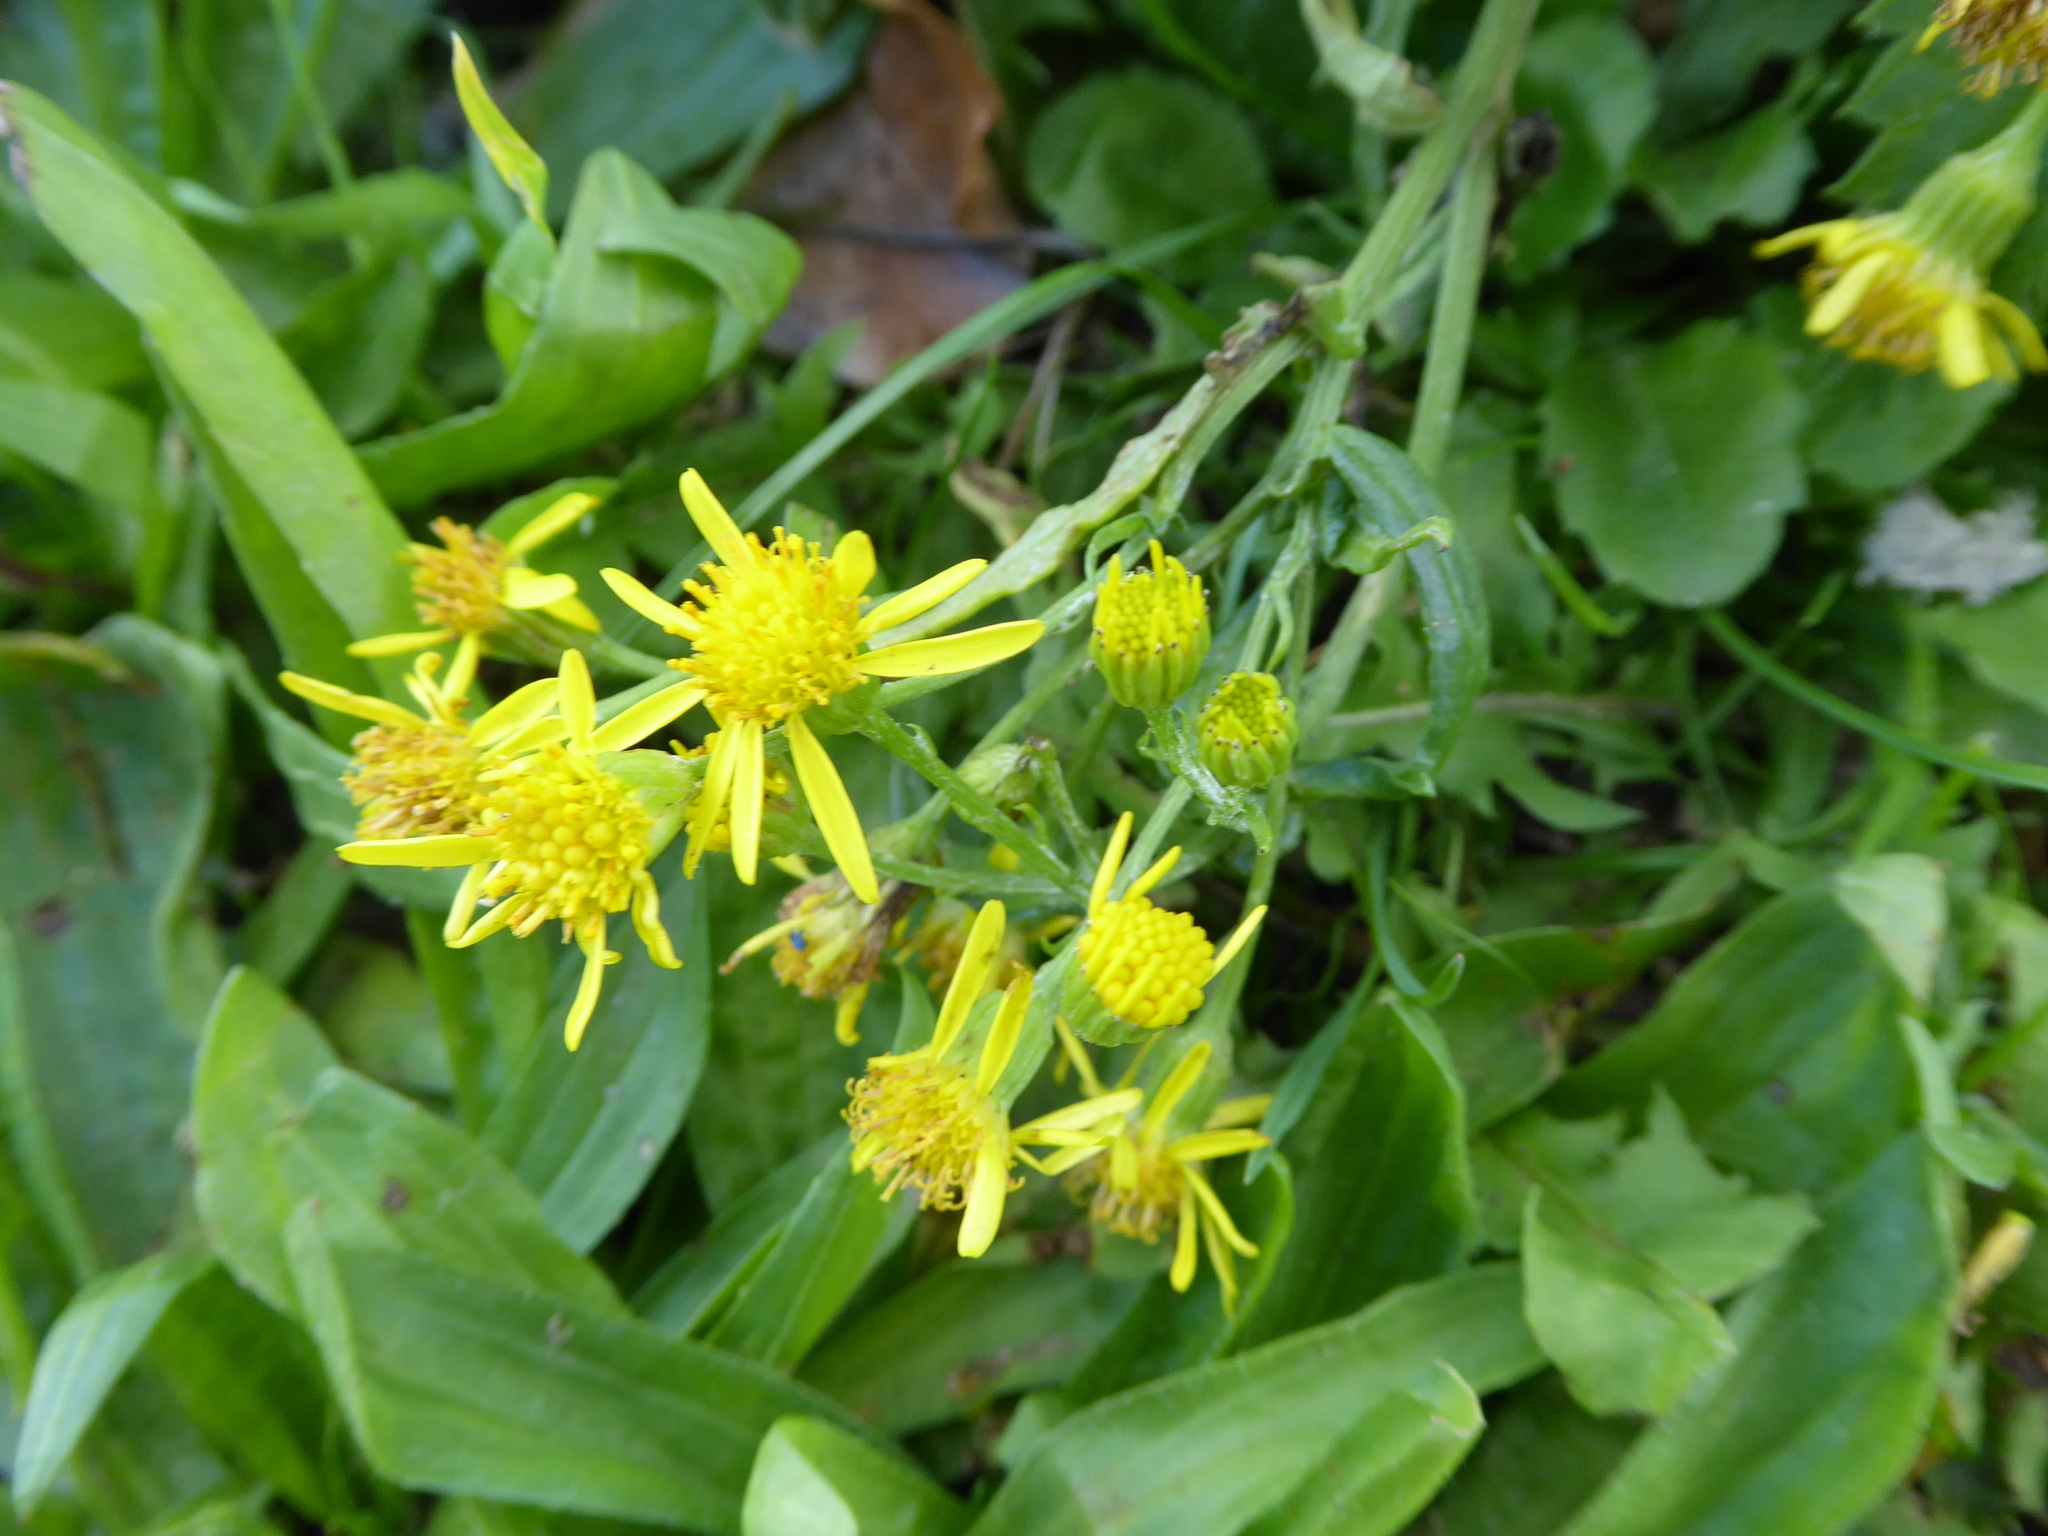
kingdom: Plantae
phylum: Tracheophyta
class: Magnoliopsida
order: Asterales
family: Asteraceae
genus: Senecio
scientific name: Senecio squalidus
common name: Oxford ragwort
